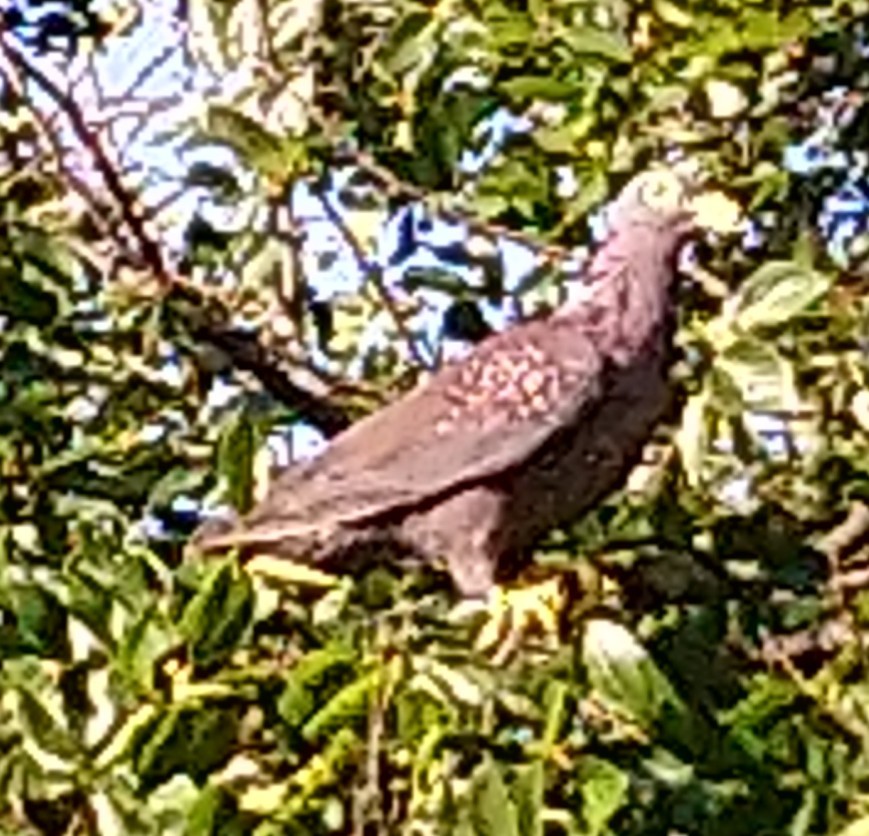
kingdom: Animalia
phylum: Chordata
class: Aves
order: Columbiformes
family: Columbidae
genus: Columba
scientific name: Columba arquatrix
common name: African olive pigeon
